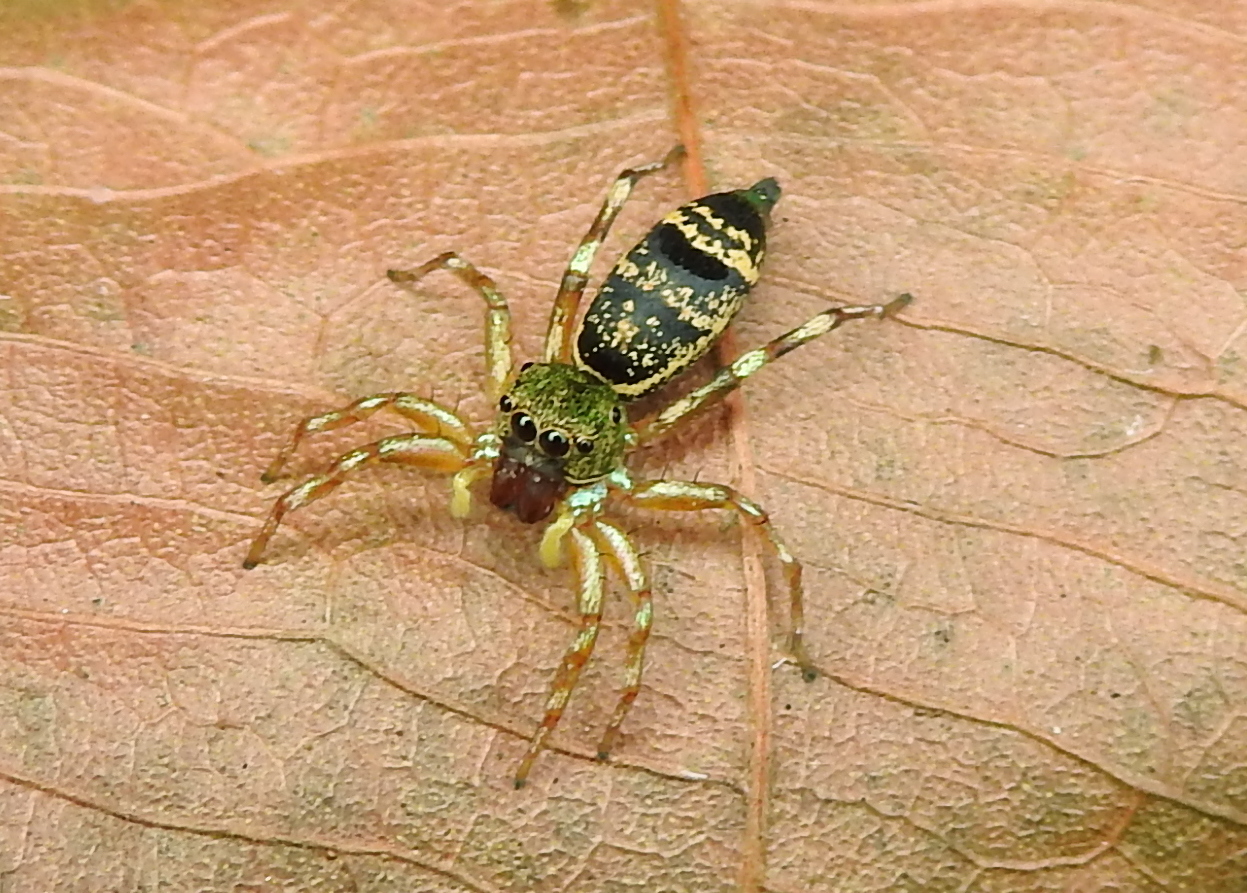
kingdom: Animalia
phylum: Arthropoda
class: Arachnida
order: Araneae
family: Salticidae
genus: Cosmophasis
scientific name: Cosmophasis thalassina
